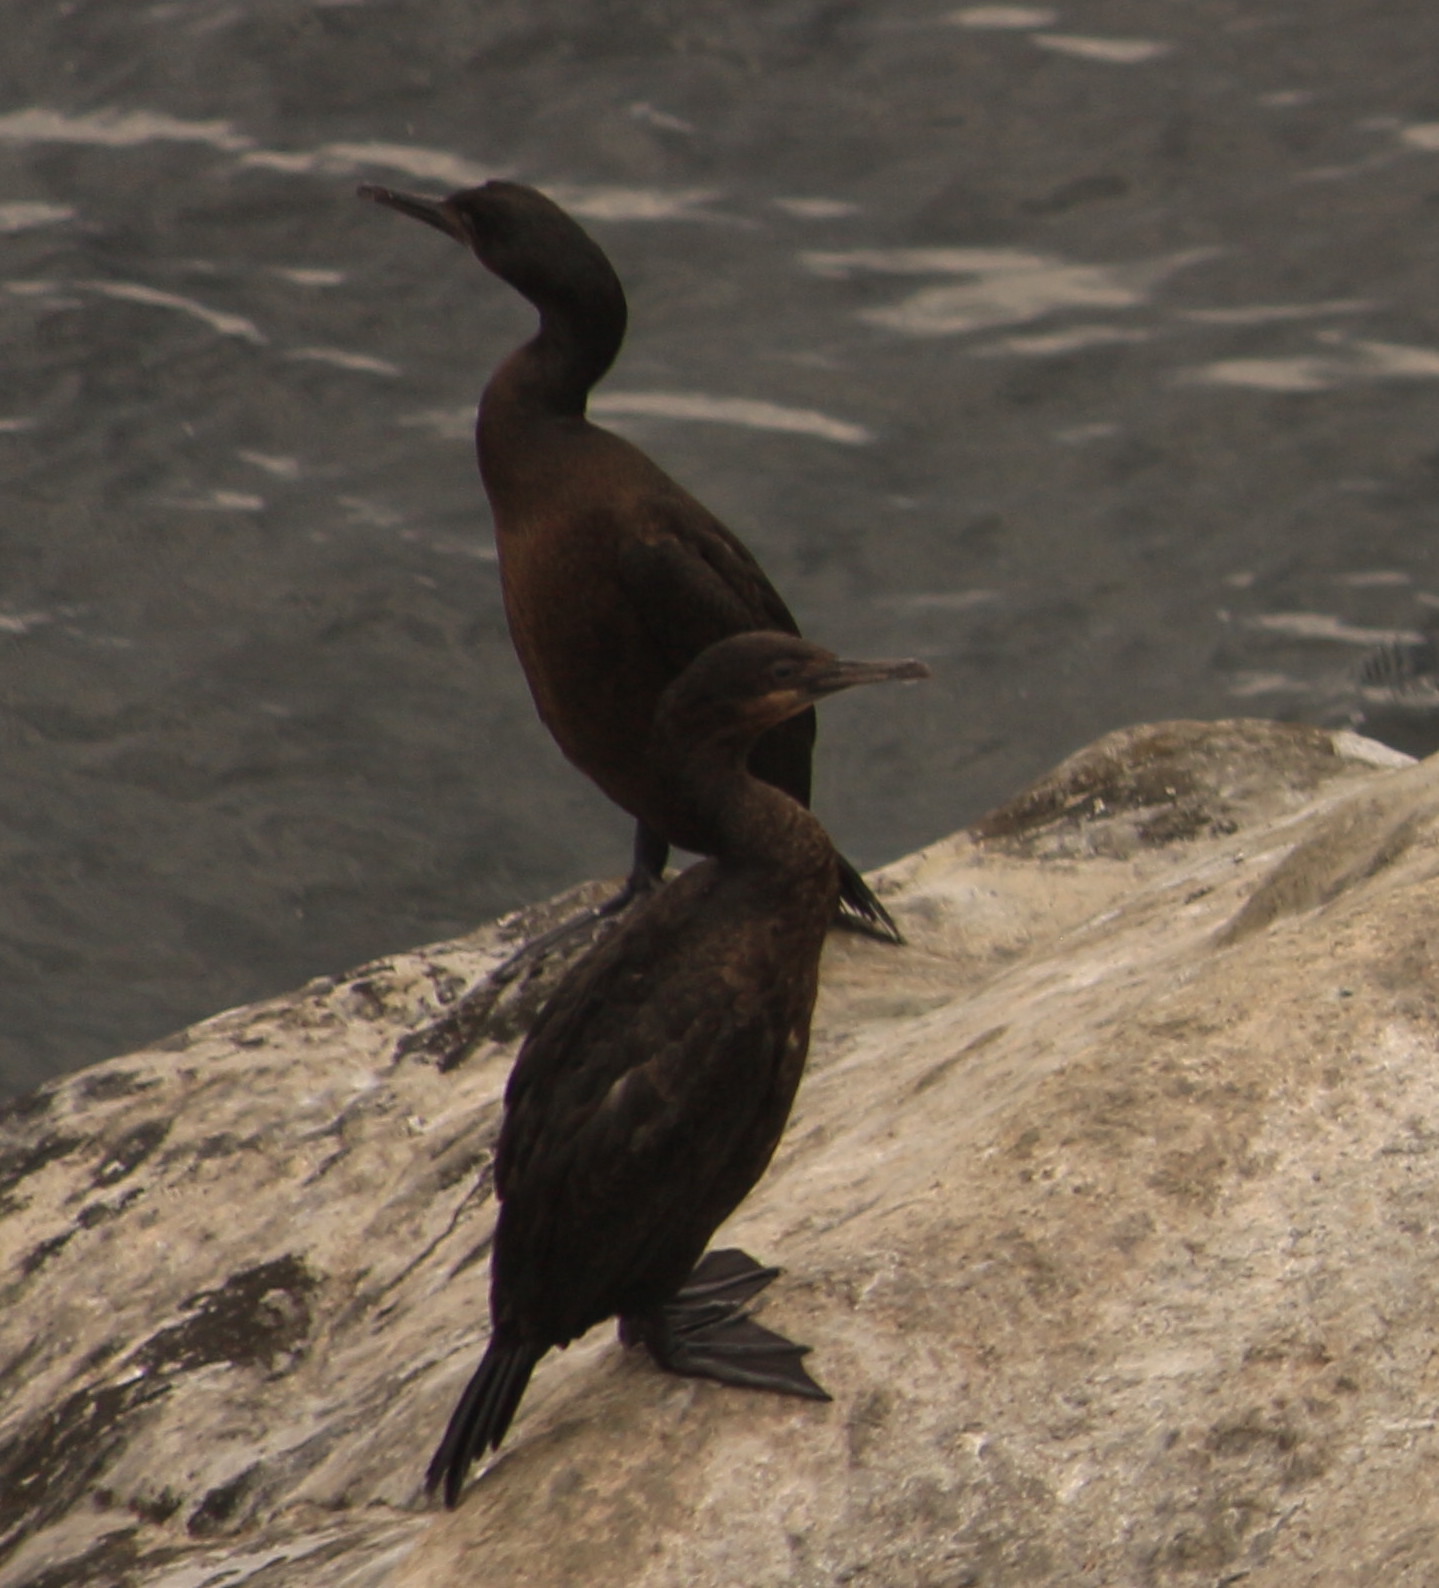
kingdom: Animalia
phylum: Chordata
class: Aves
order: Suliformes
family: Phalacrocoracidae
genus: Urile
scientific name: Urile penicillatus
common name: Brandt's cormorant
